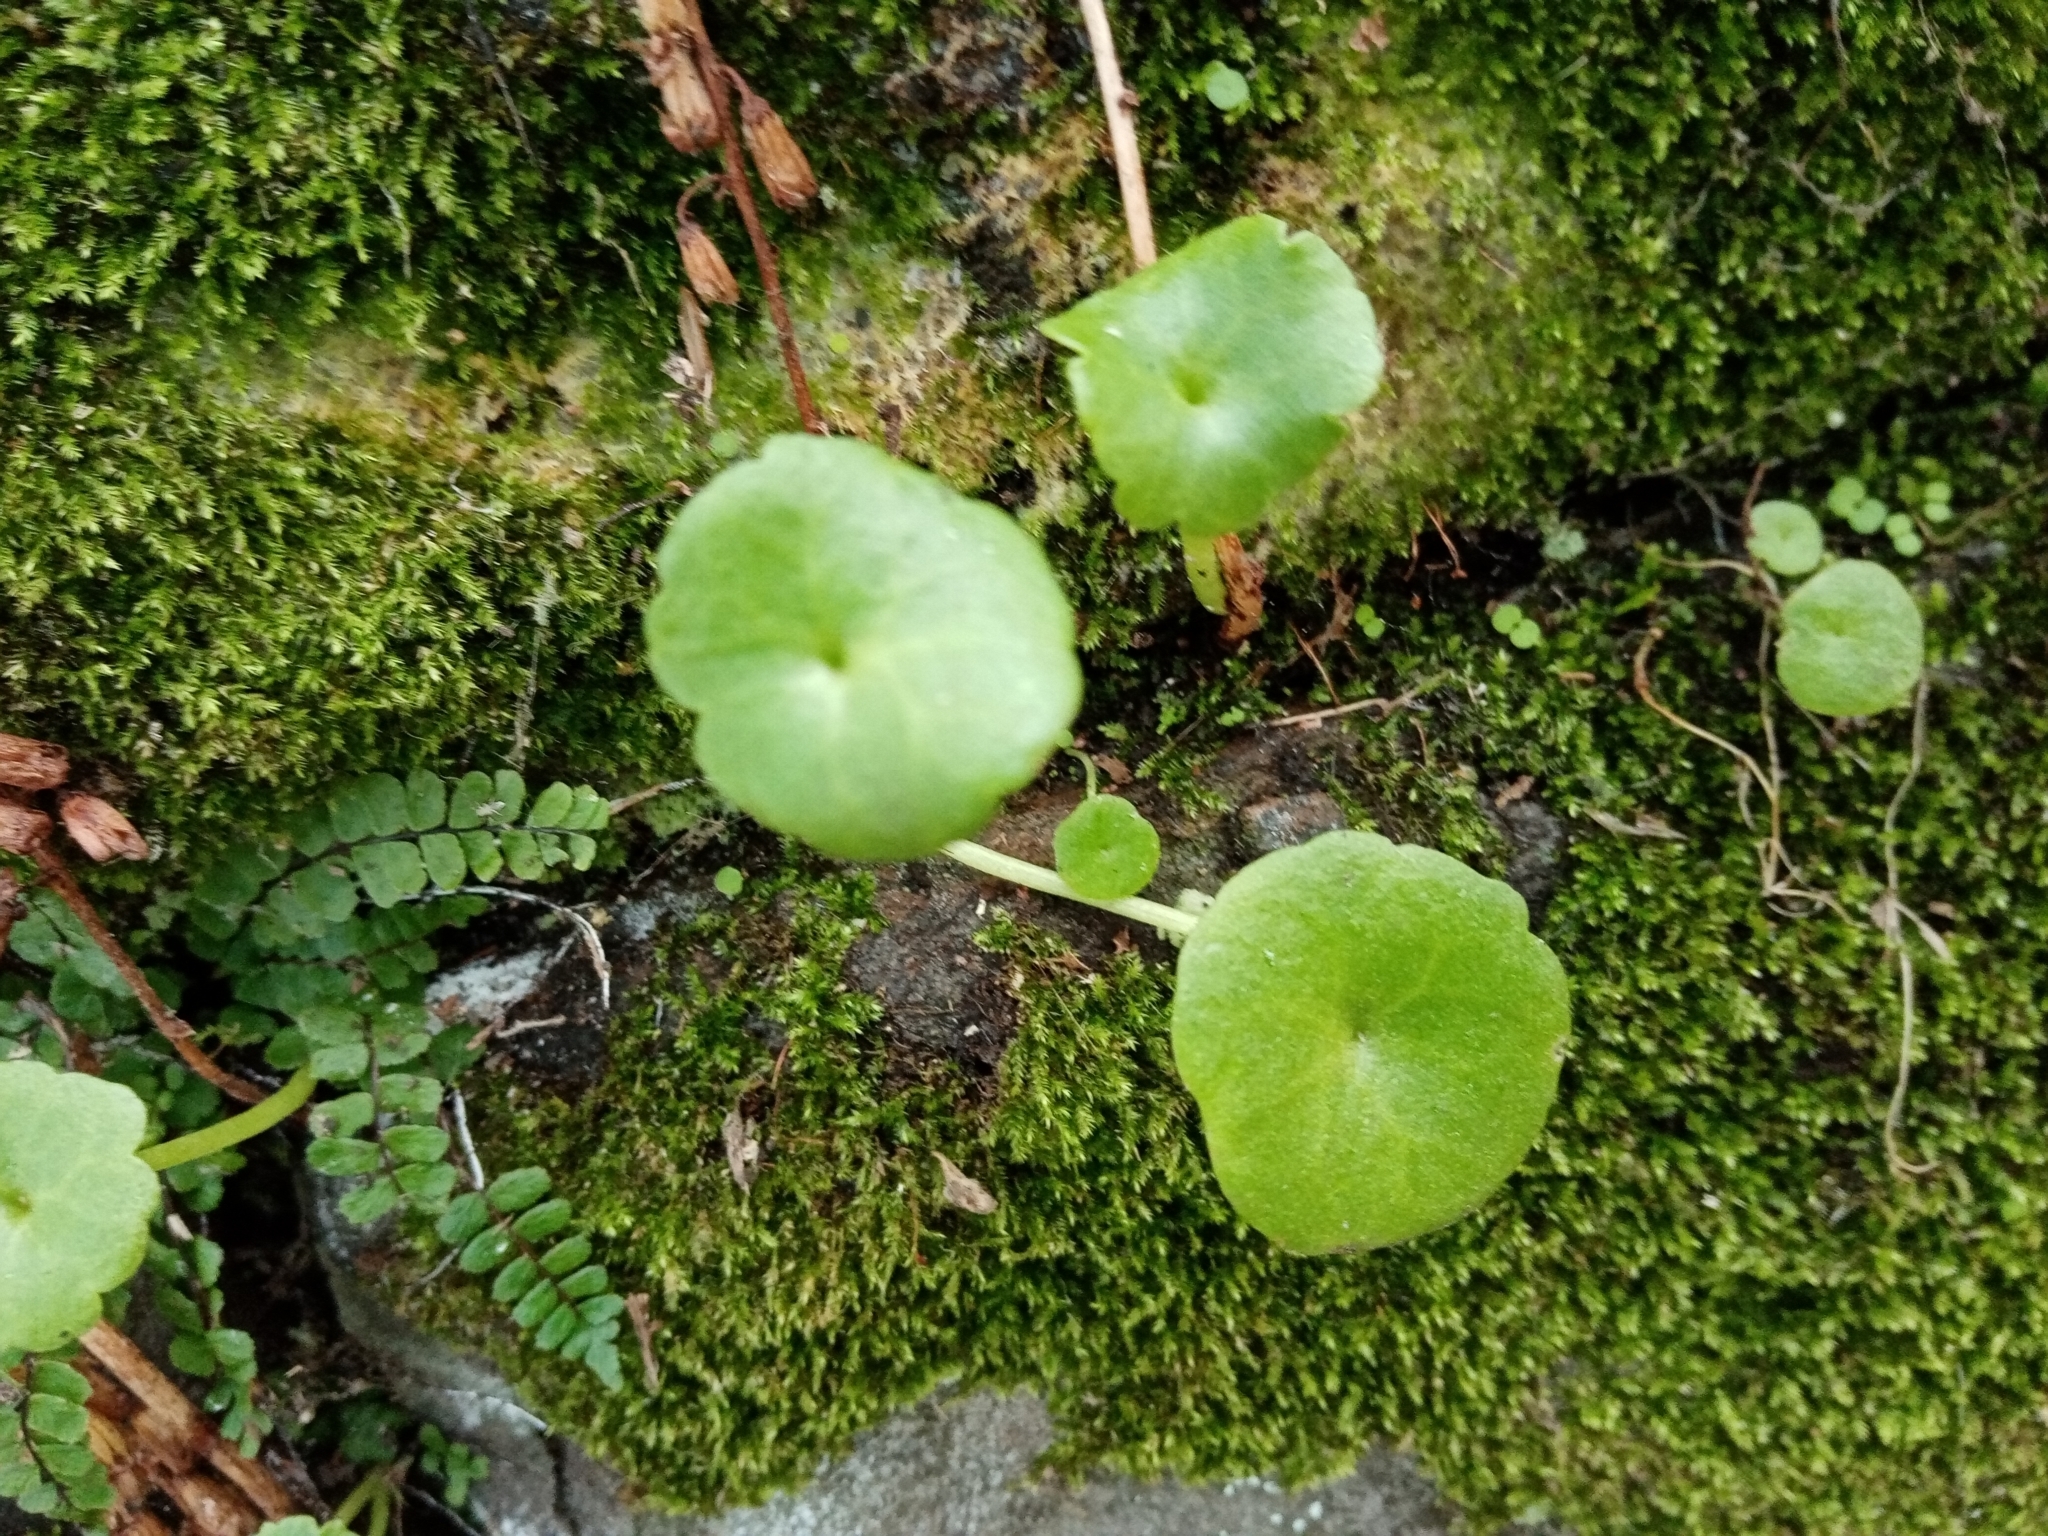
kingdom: Plantae
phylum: Tracheophyta
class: Magnoliopsida
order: Saxifragales
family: Crassulaceae
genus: Umbilicus
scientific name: Umbilicus rupestris
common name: Navelwort
